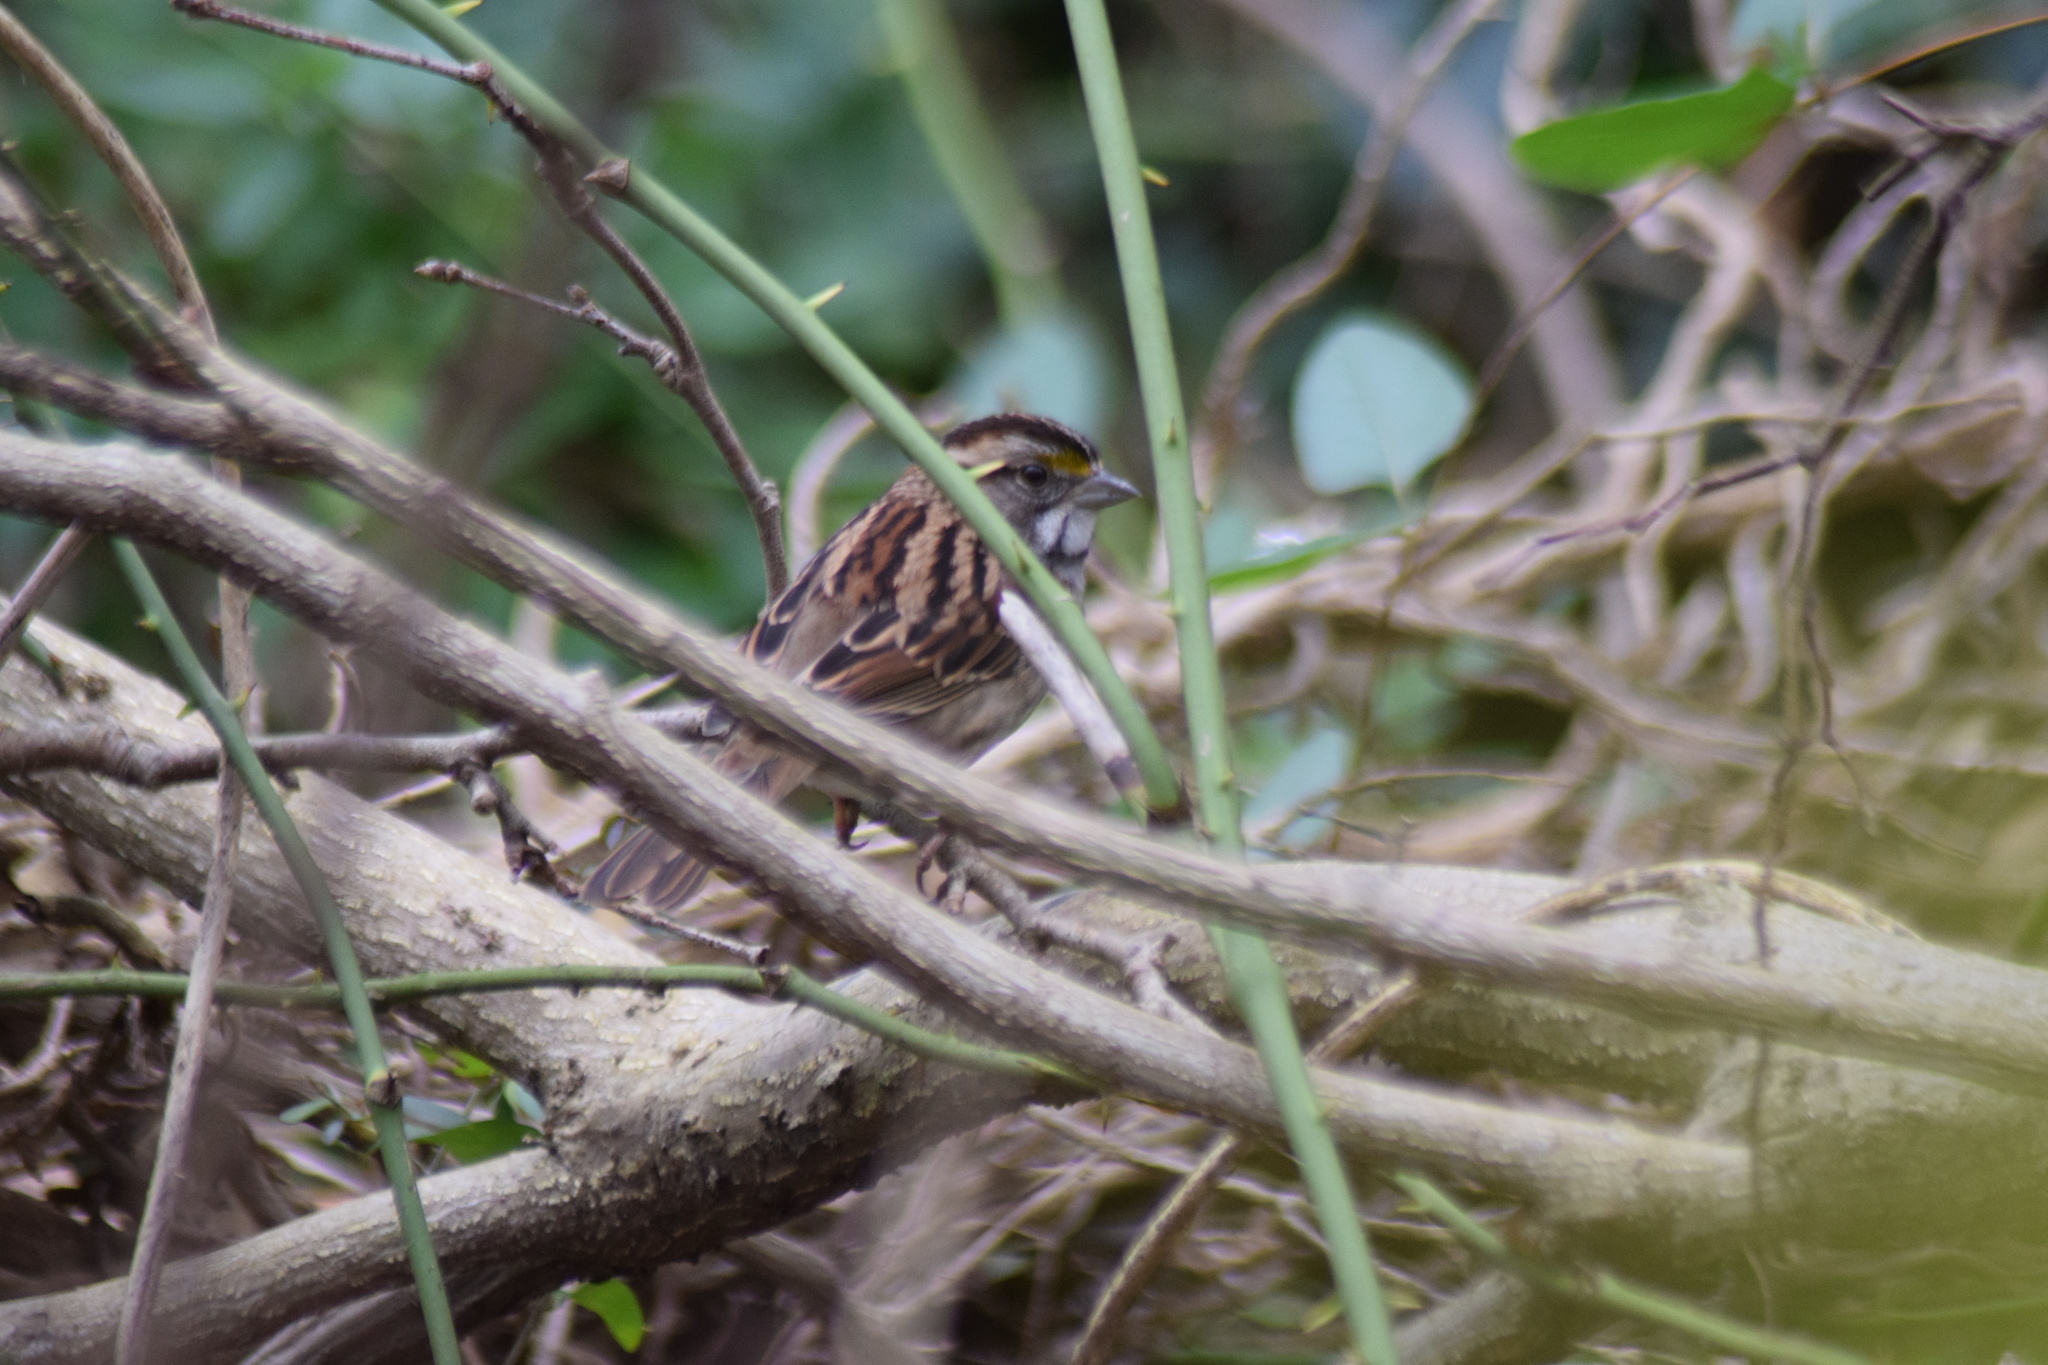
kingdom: Animalia
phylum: Chordata
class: Aves
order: Passeriformes
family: Passerellidae
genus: Zonotrichia
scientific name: Zonotrichia albicollis
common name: White-throated sparrow
